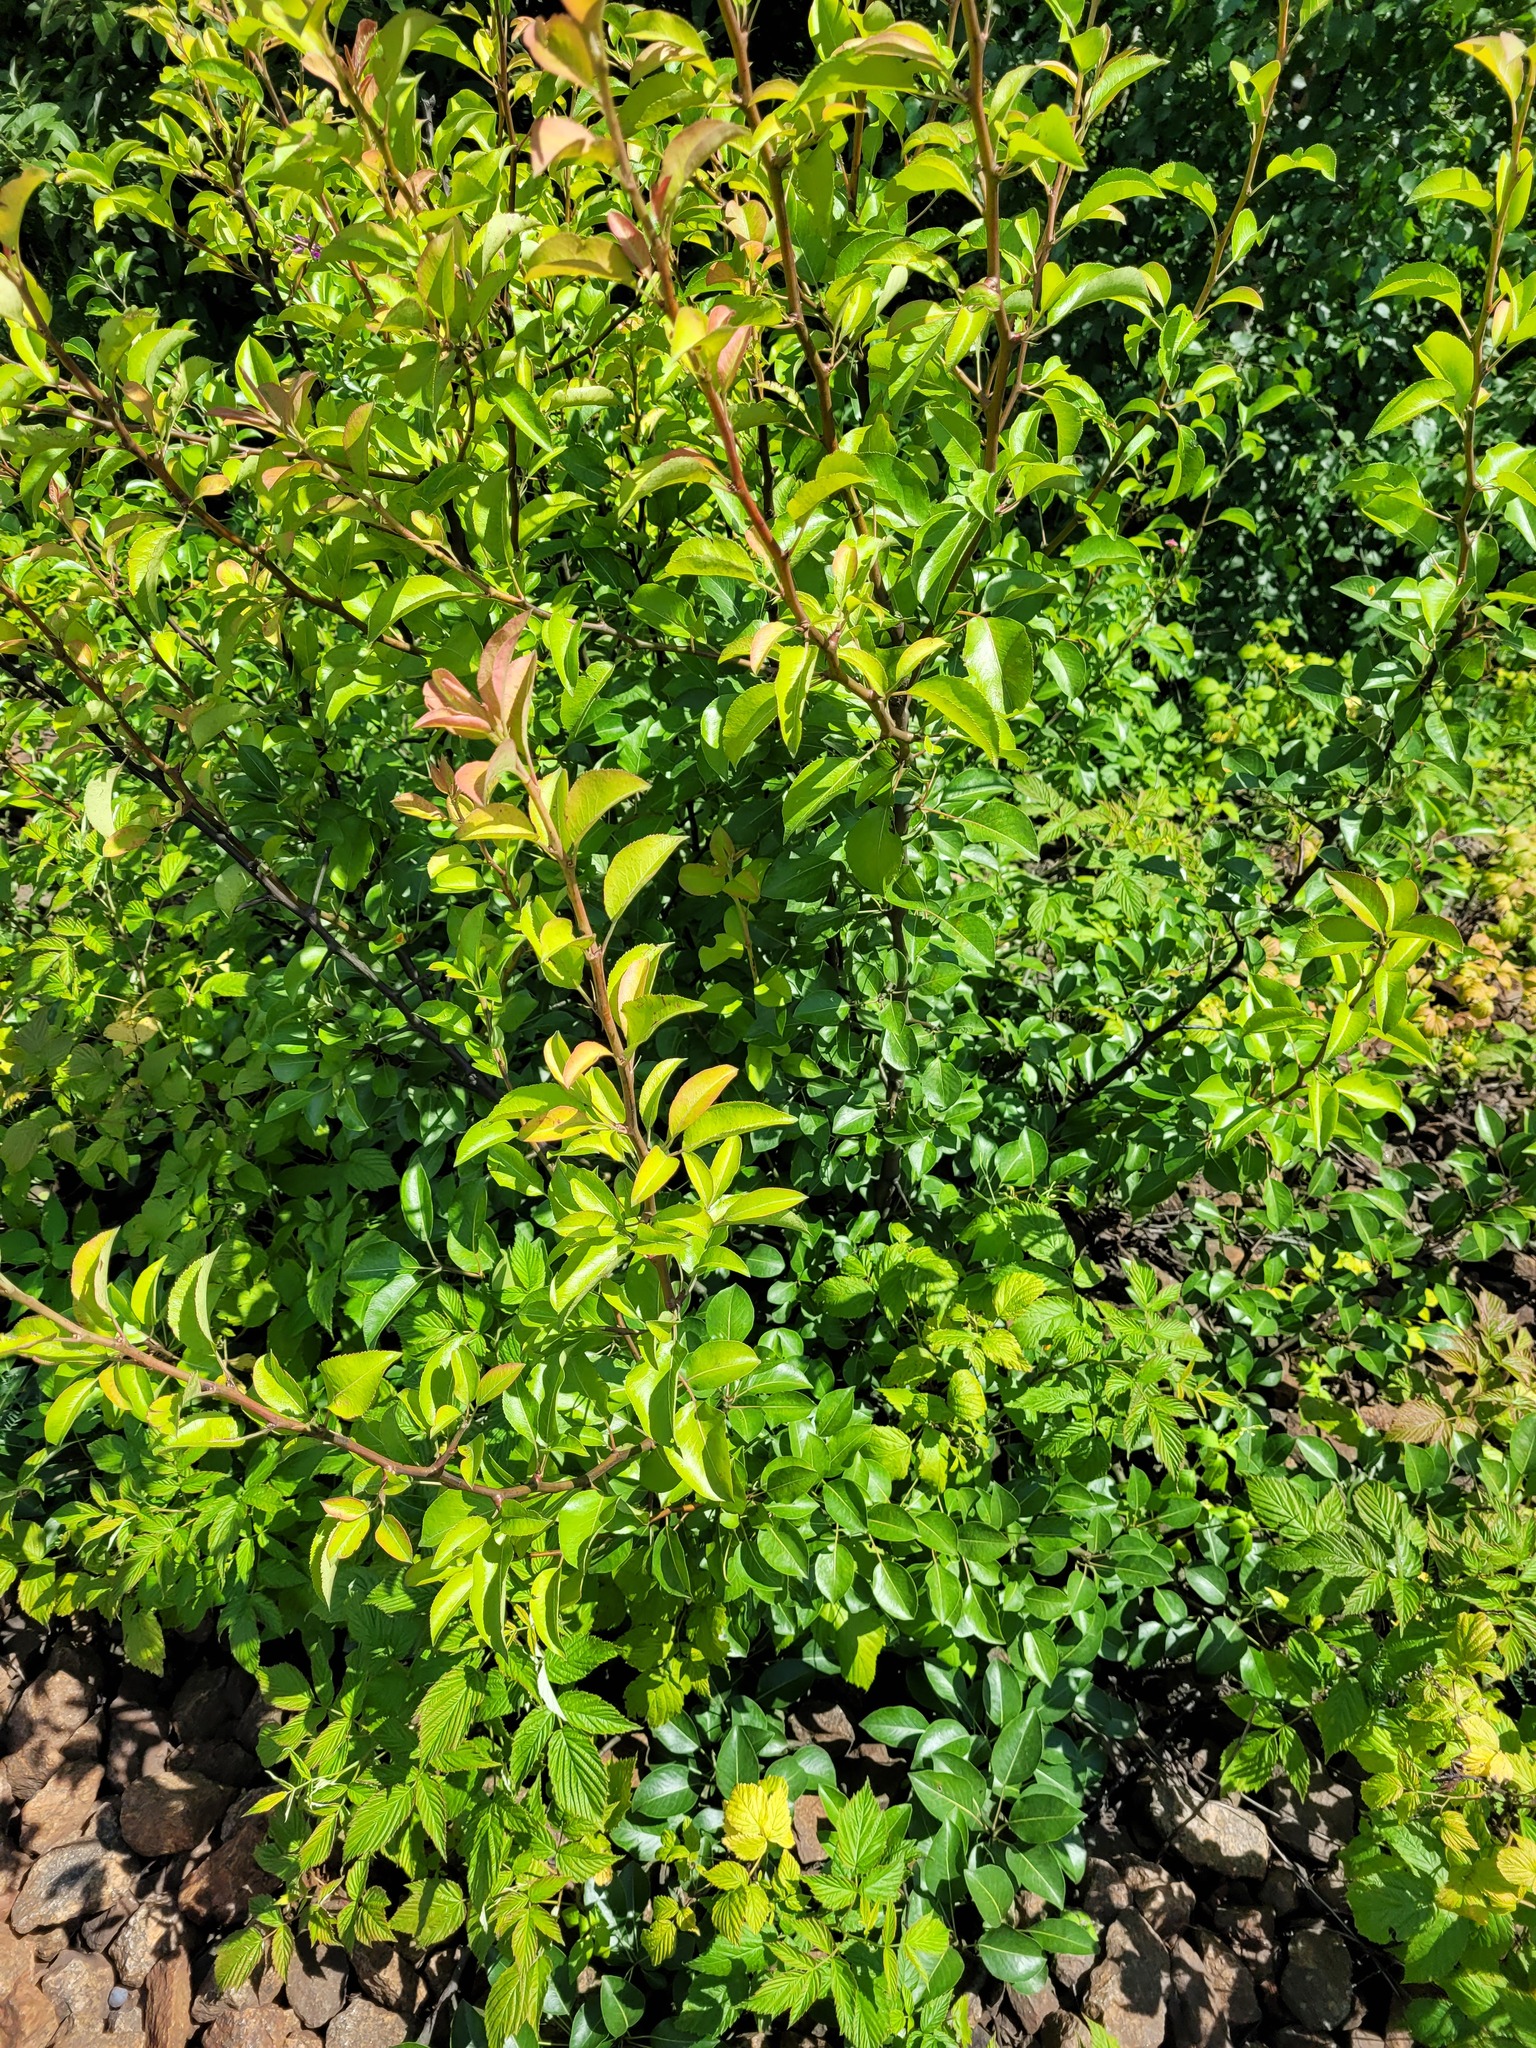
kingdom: Plantae
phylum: Tracheophyta
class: Magnoliopsida
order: Rosales
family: Rosaceae
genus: Pyrus
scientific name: Pyrus communis
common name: Pear
